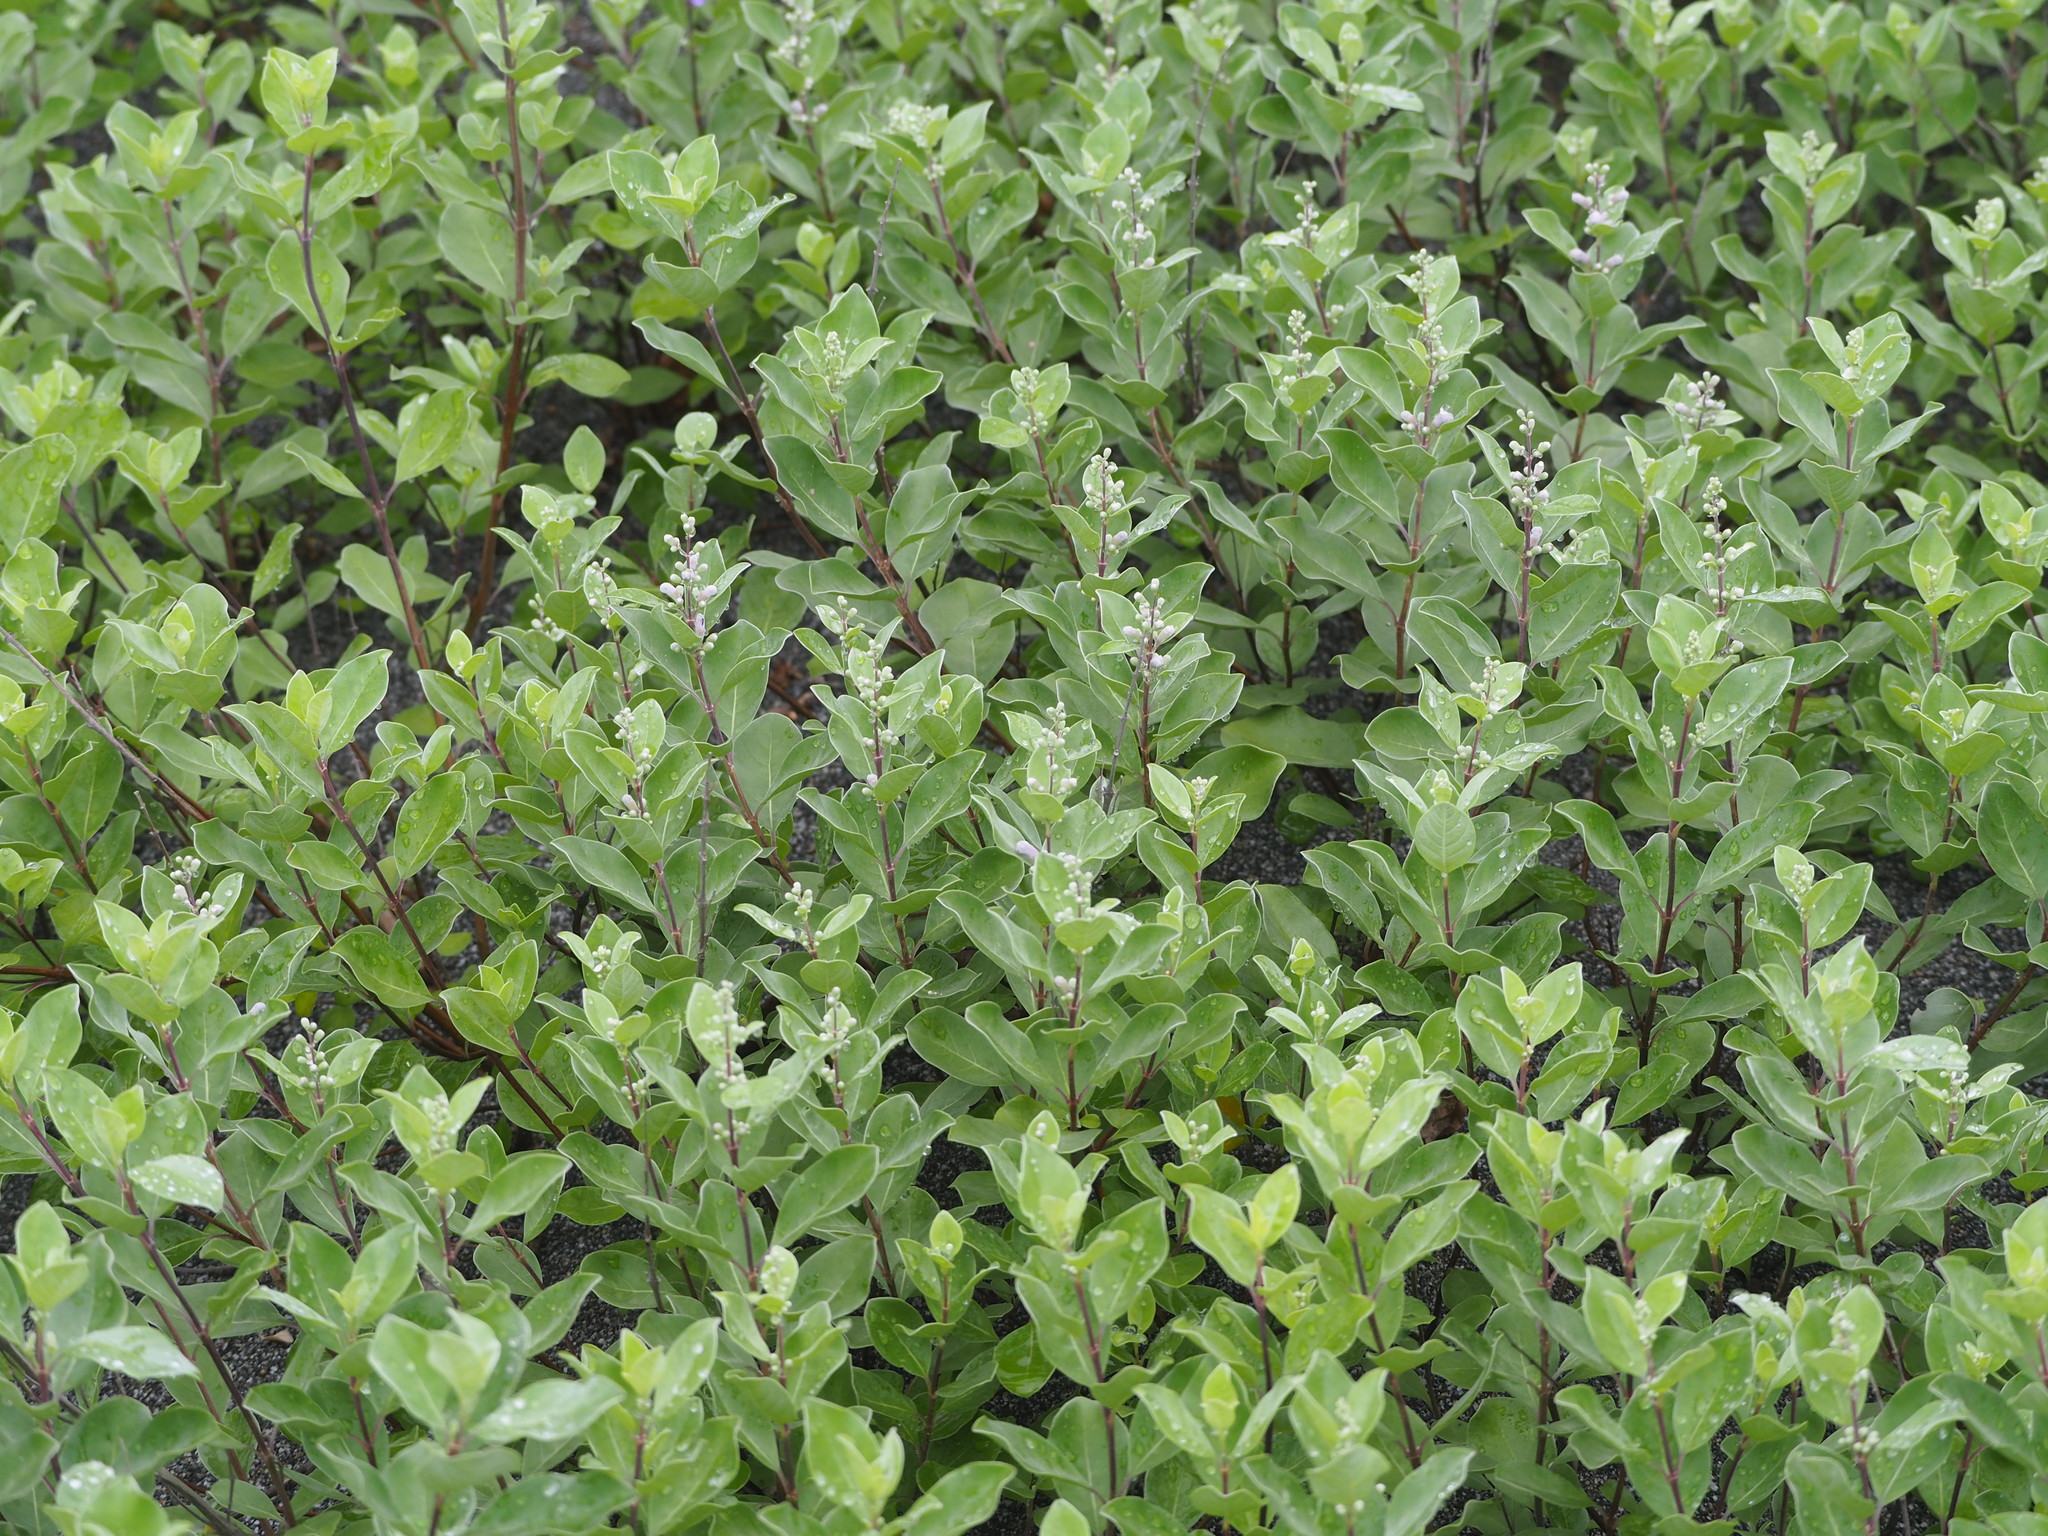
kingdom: Plantae
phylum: Tracheophyta
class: Magnoliopsida
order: Lamiales
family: Lamiaceae
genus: Vitex
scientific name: Vitex rotundifolia
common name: Beach vitex
